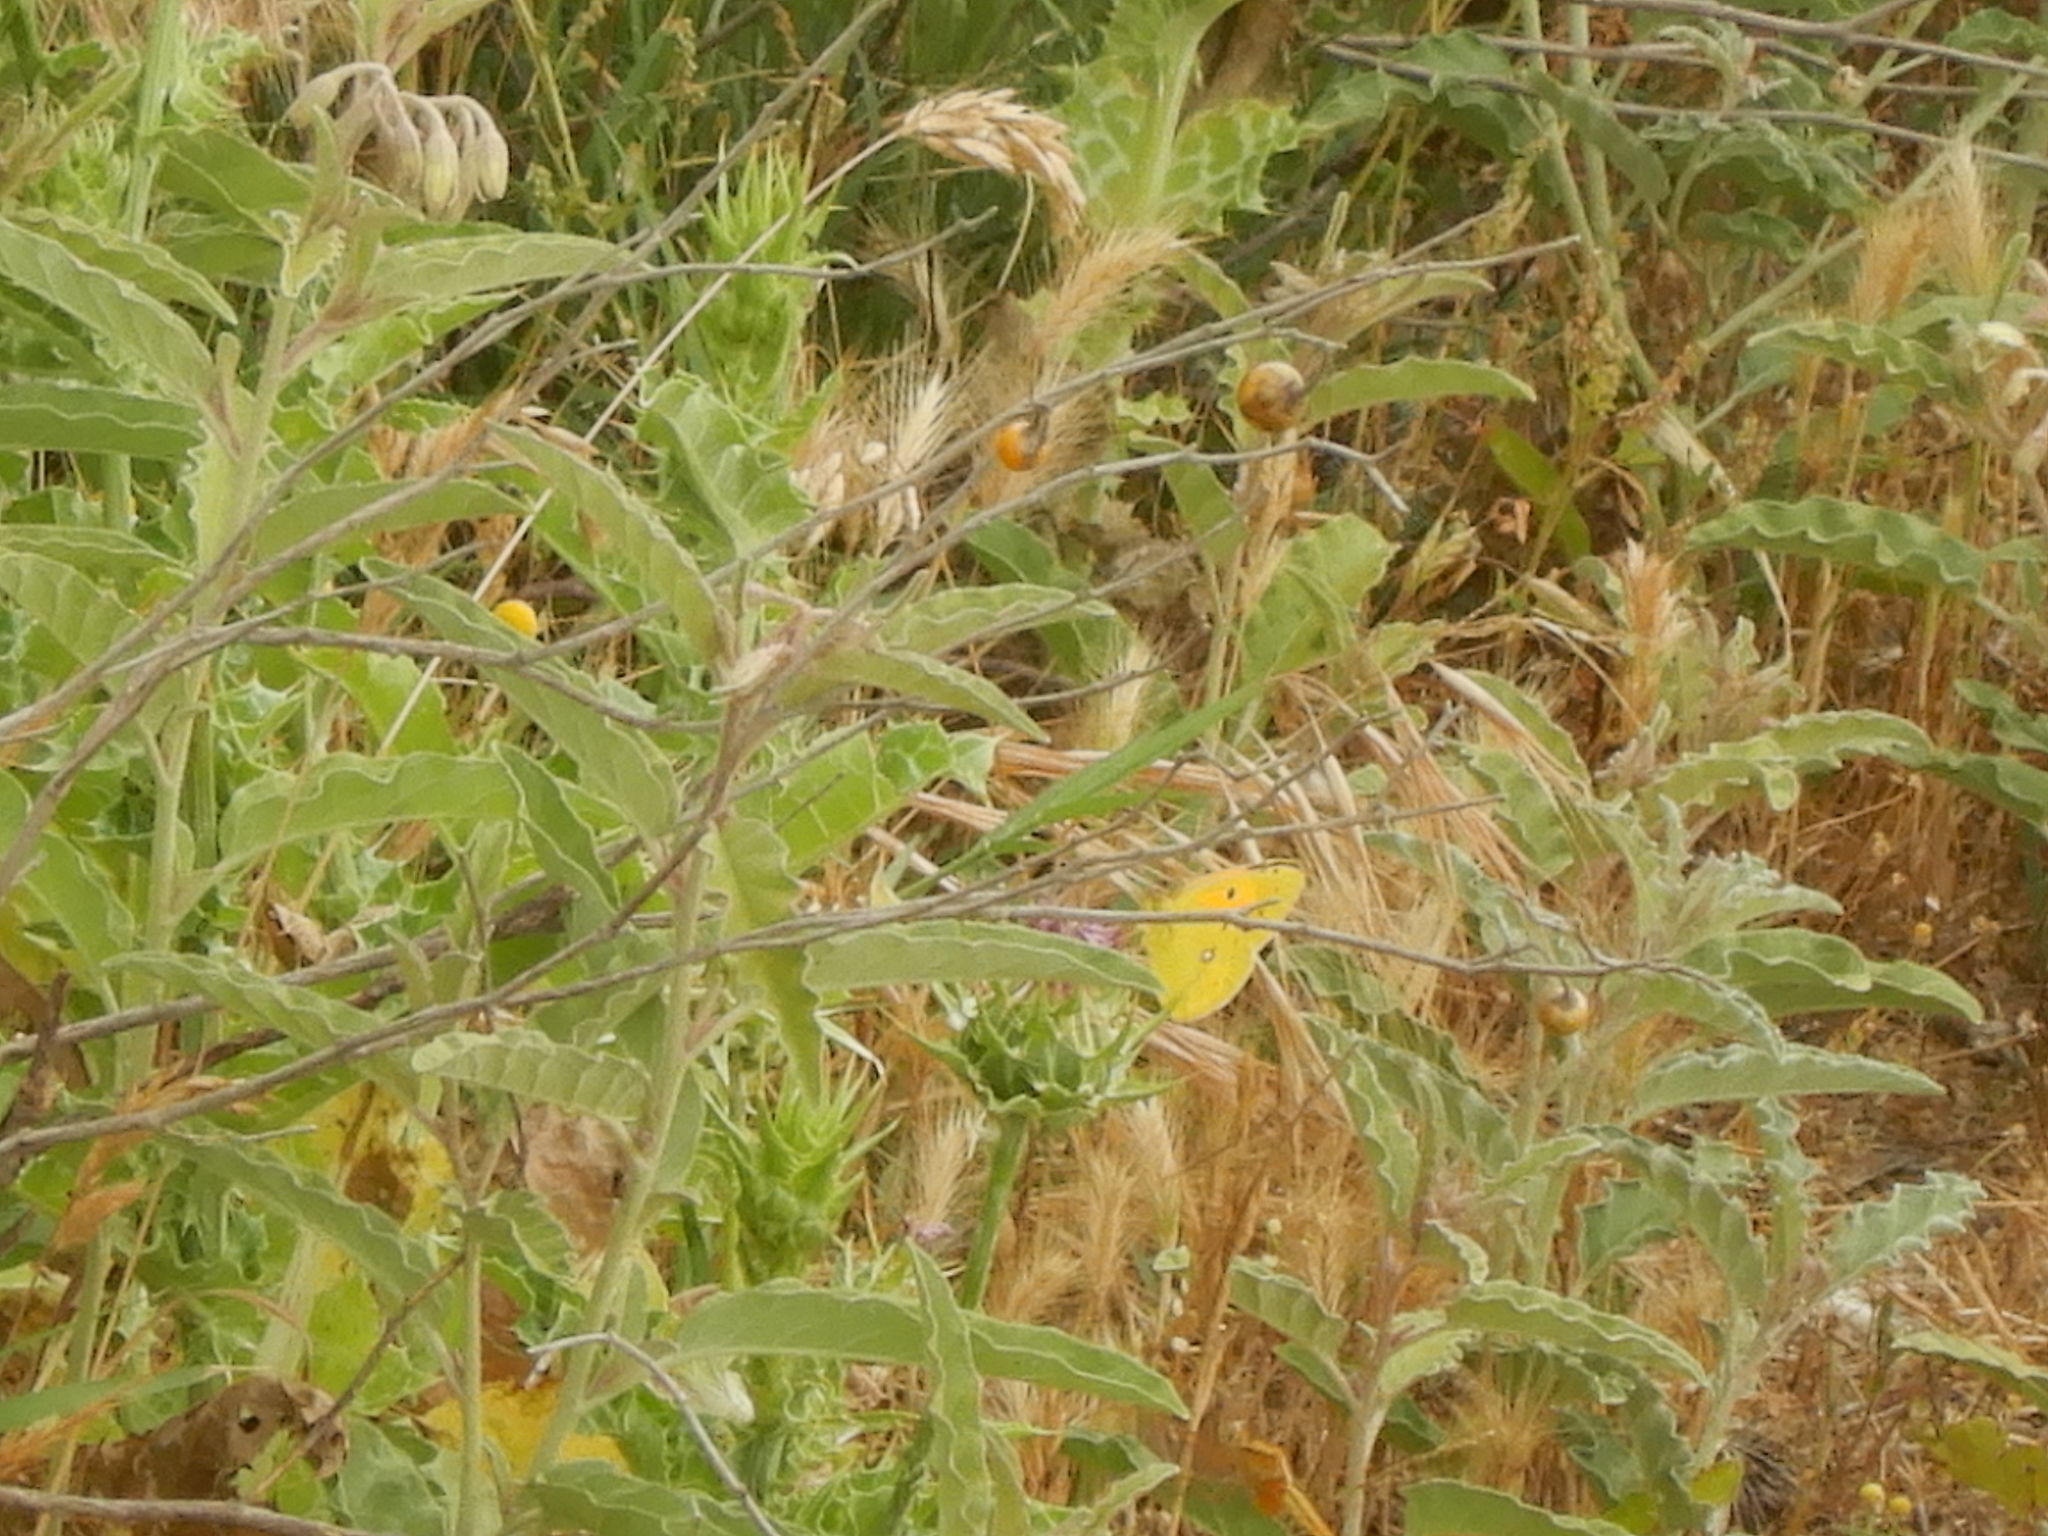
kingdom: Animalia
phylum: Arthropoda
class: Insecta
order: Lepidoptera
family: Pieridae
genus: Colias
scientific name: Colias croceus
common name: Clouded yellow
